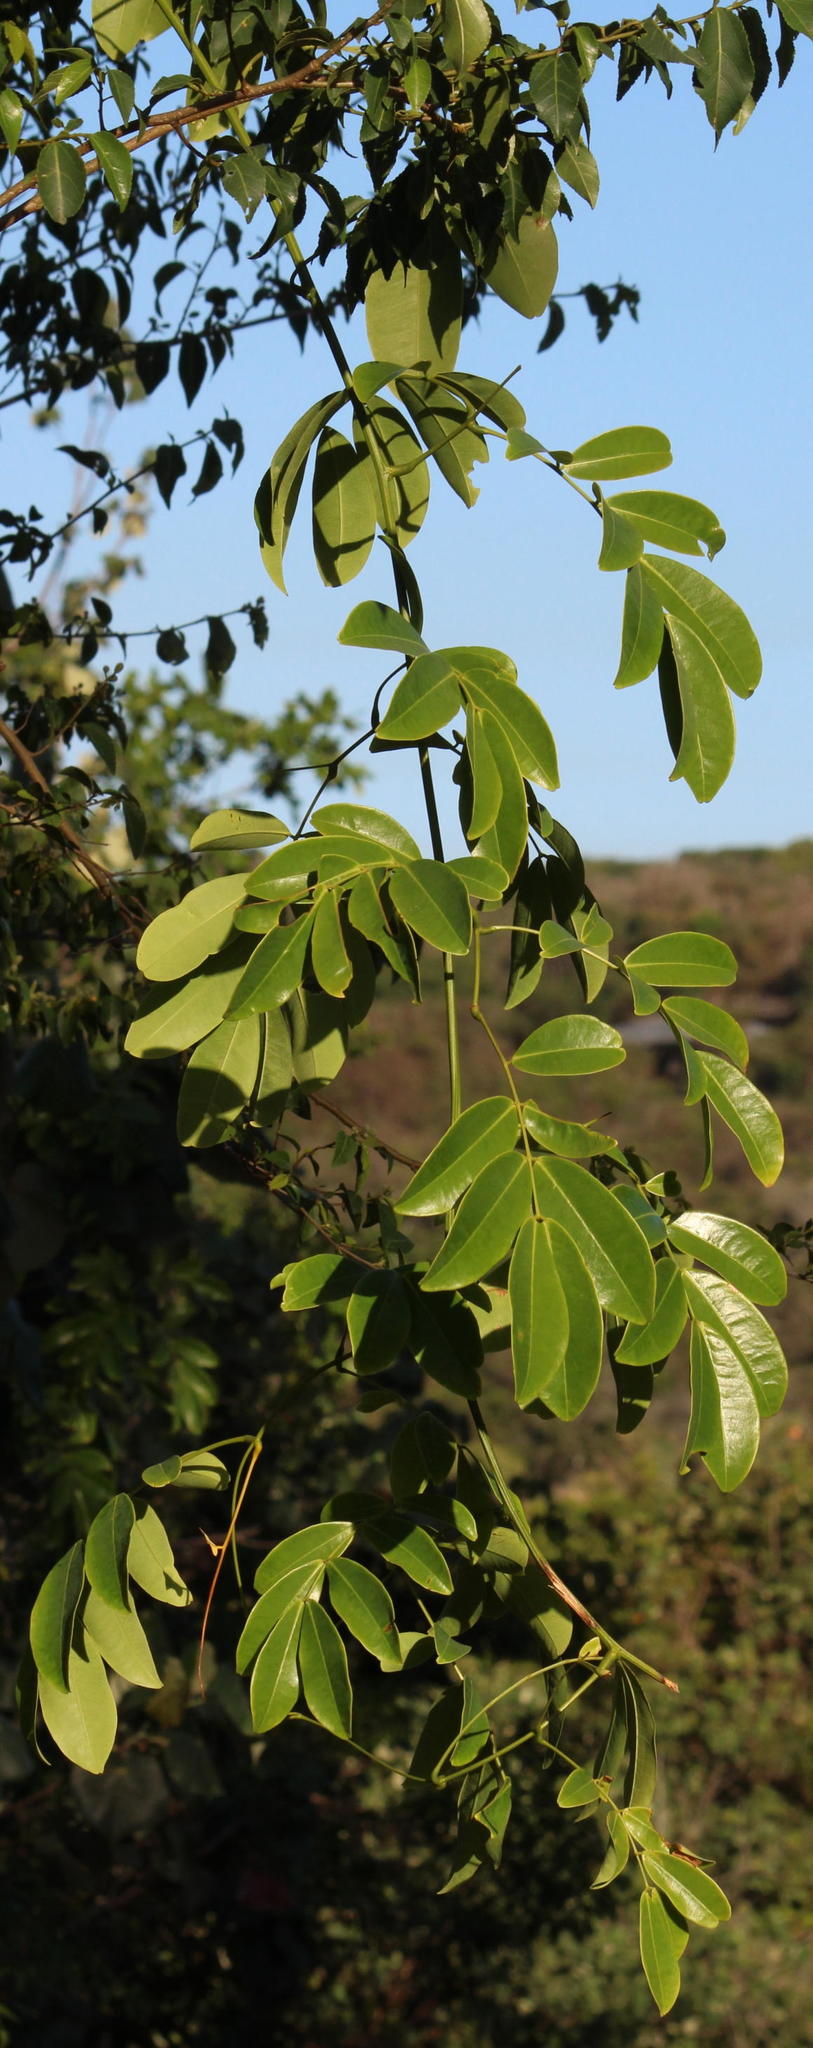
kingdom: Plantae
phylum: Tracheophyta
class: Magnoliopsida
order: Fabales
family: Fabaceae
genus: Entada
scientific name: Entada rheedei
